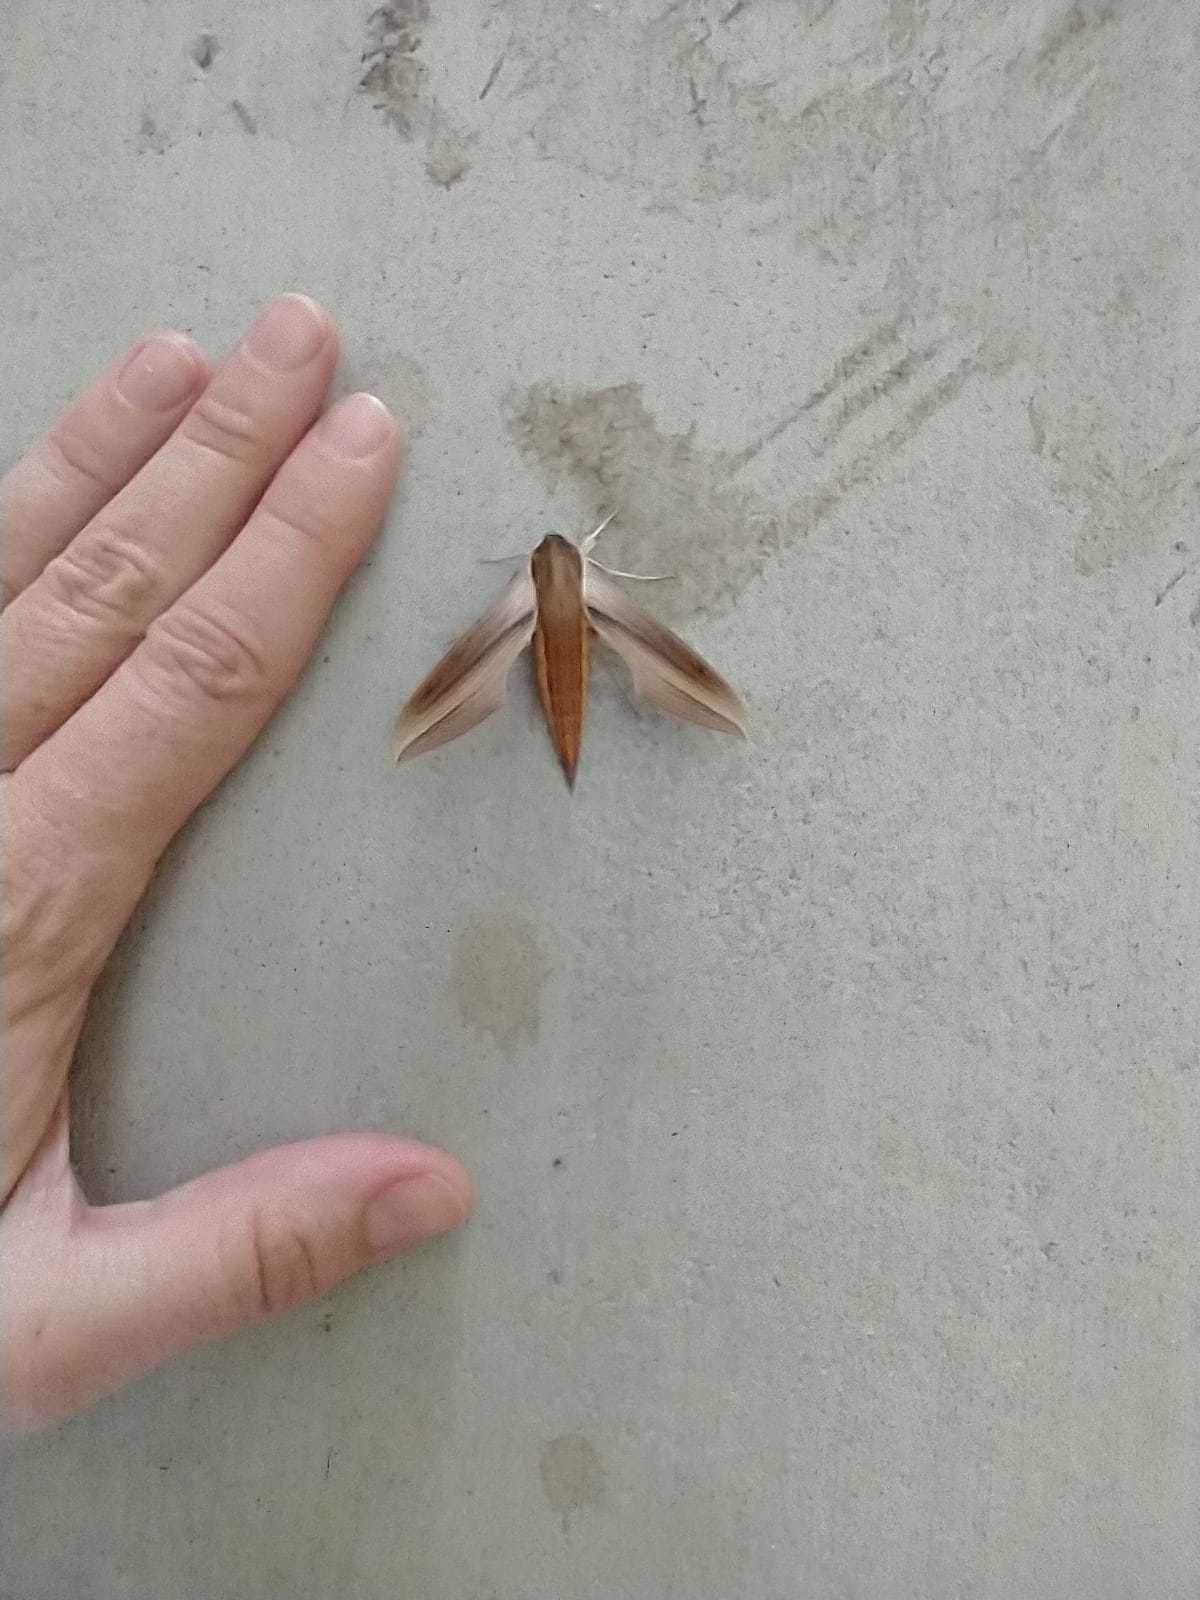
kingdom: Animalia
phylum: Arthropoda
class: Insecta
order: Lepidoptera
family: Sphingidae
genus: Xylophanes
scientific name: Xylophanes tersa
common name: Tersa sphinx
